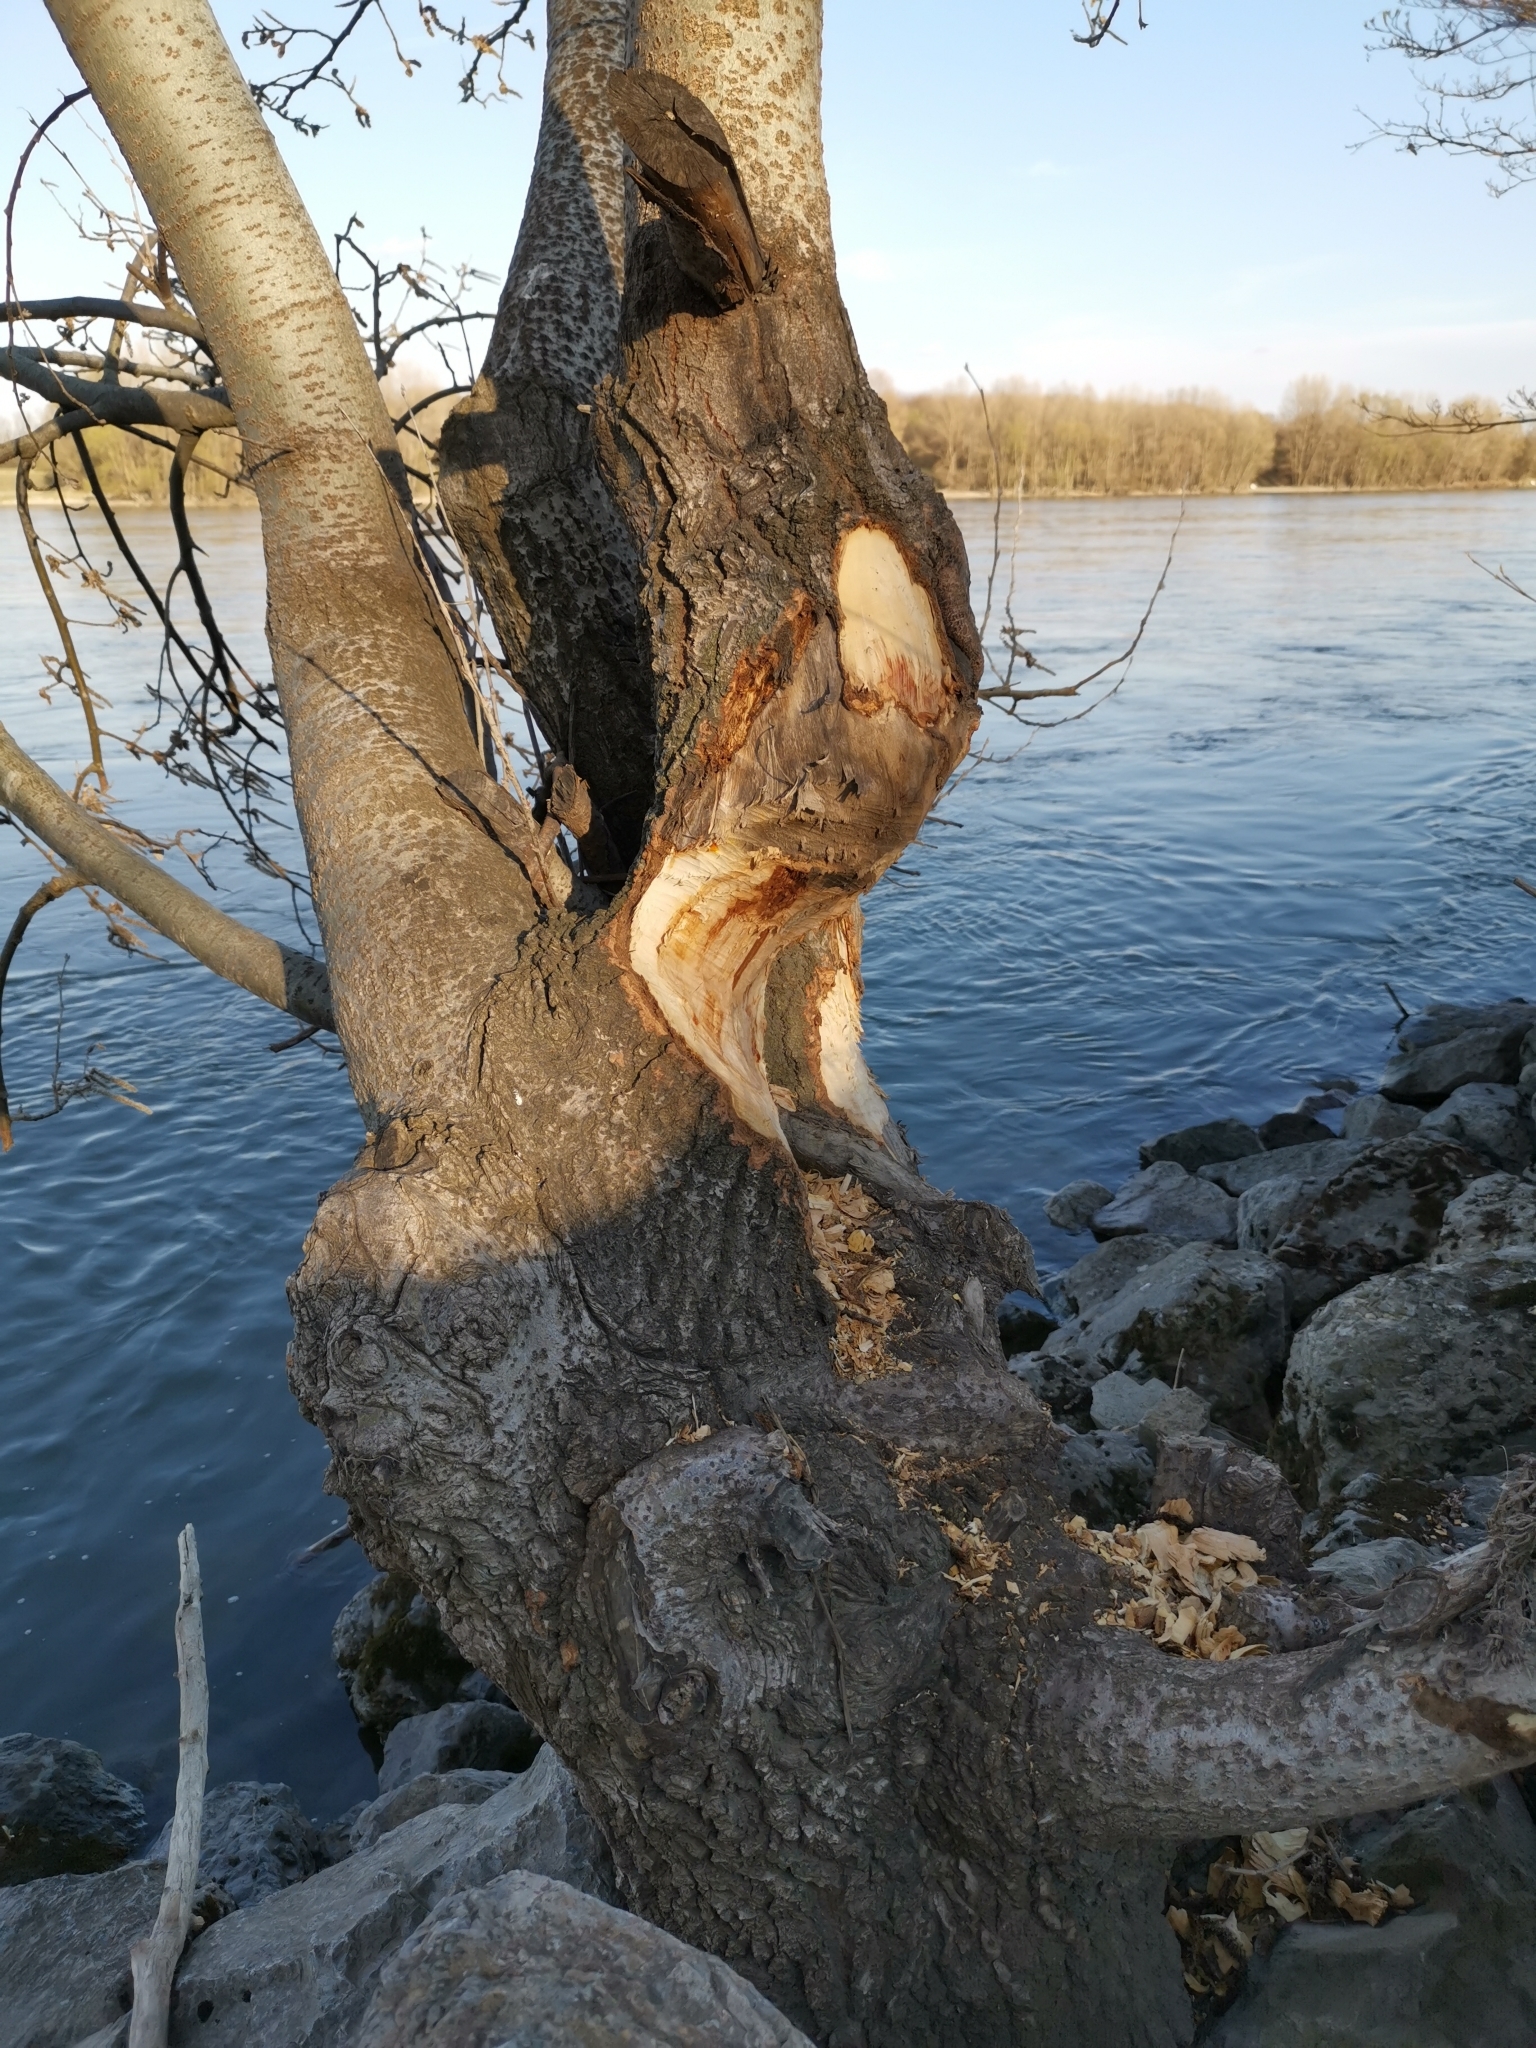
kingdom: Animalia
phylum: Chordata
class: Mammalia
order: Rodentia
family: Castoridae
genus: Castor
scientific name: Castor fiber
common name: Eurasian beaver
